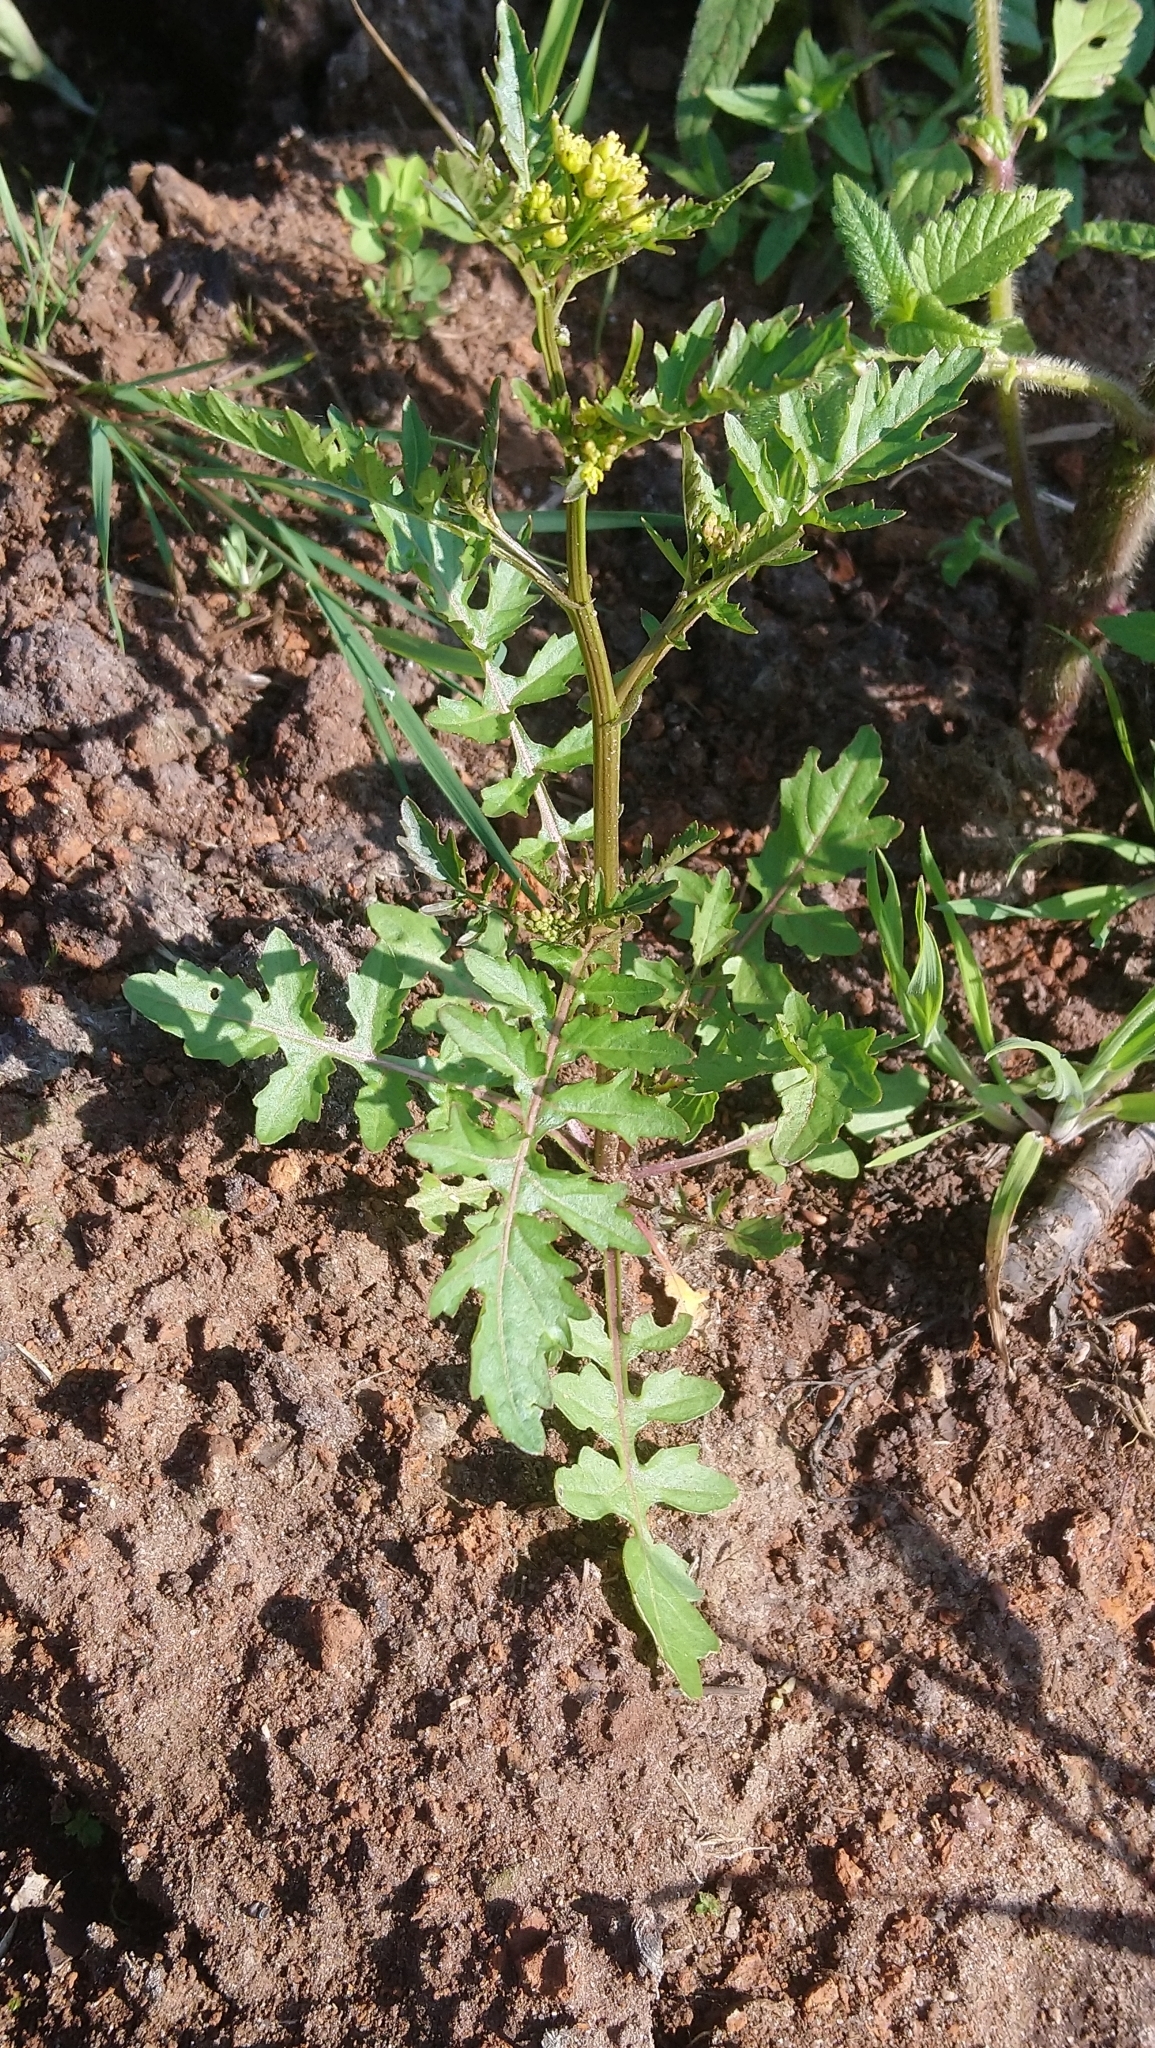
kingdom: Plantae
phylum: Tracheophyta
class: Magnoliopsida
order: Brassicales
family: Brassicaceae
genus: Rorippa
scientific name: Rorippa palustris
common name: Marsh yellow-cress
